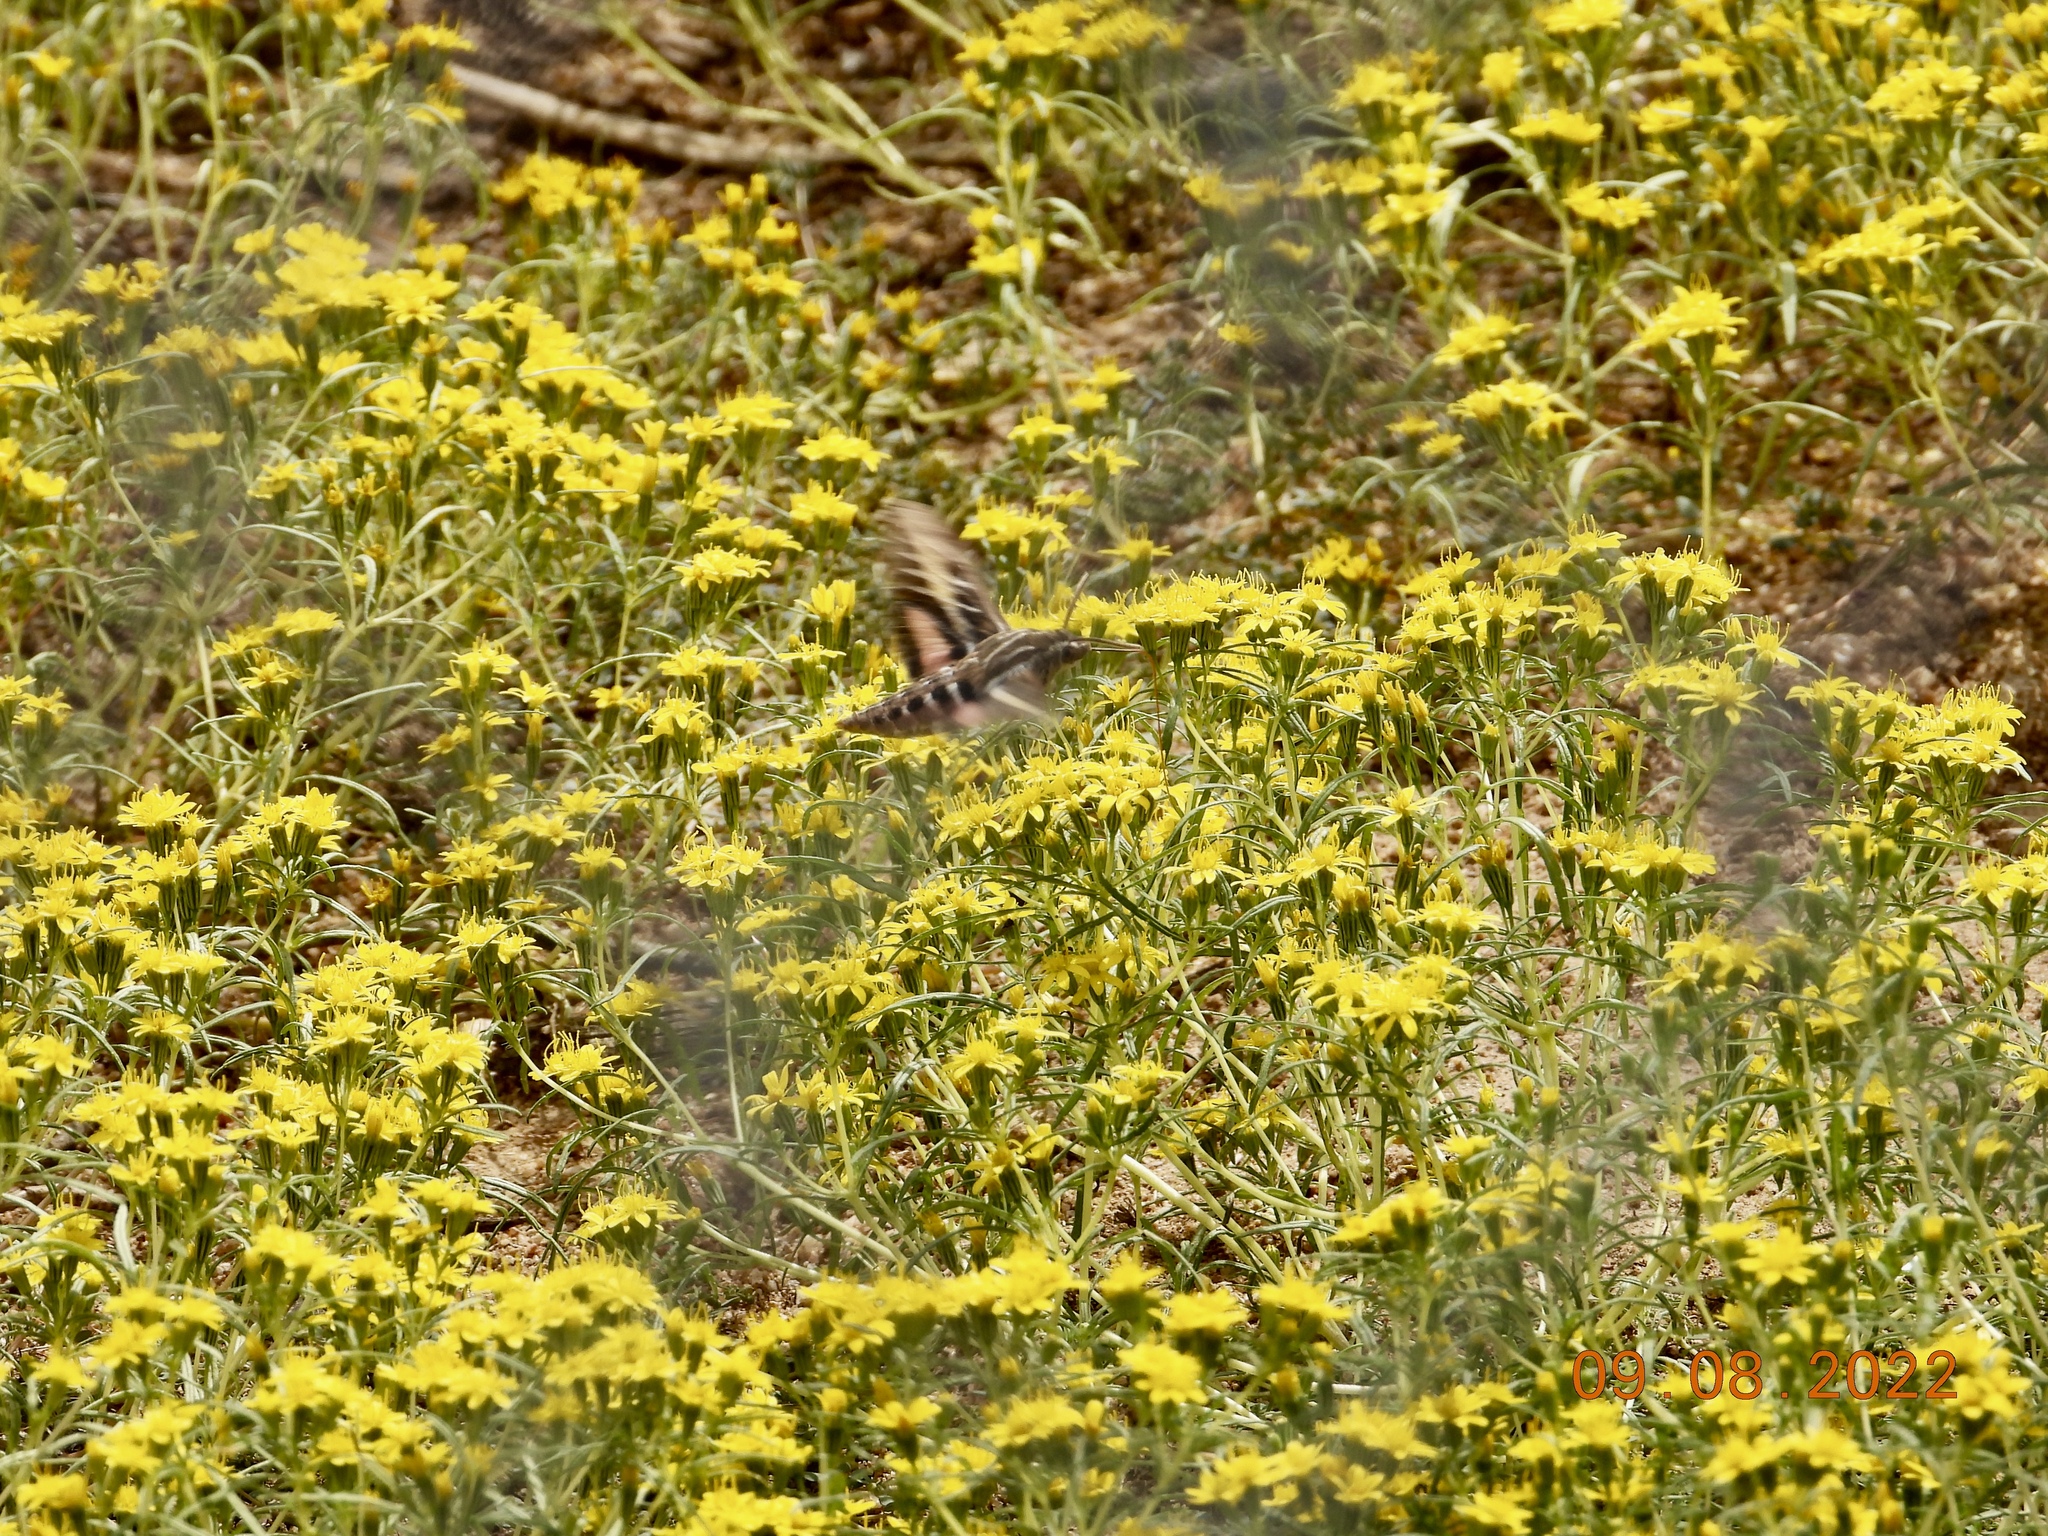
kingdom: Animalia
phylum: Arthropoda
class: Insecta
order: Lepidoptera
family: Sphingidae
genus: Hyles
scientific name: Hyles lineata
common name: White-lined sphinx
